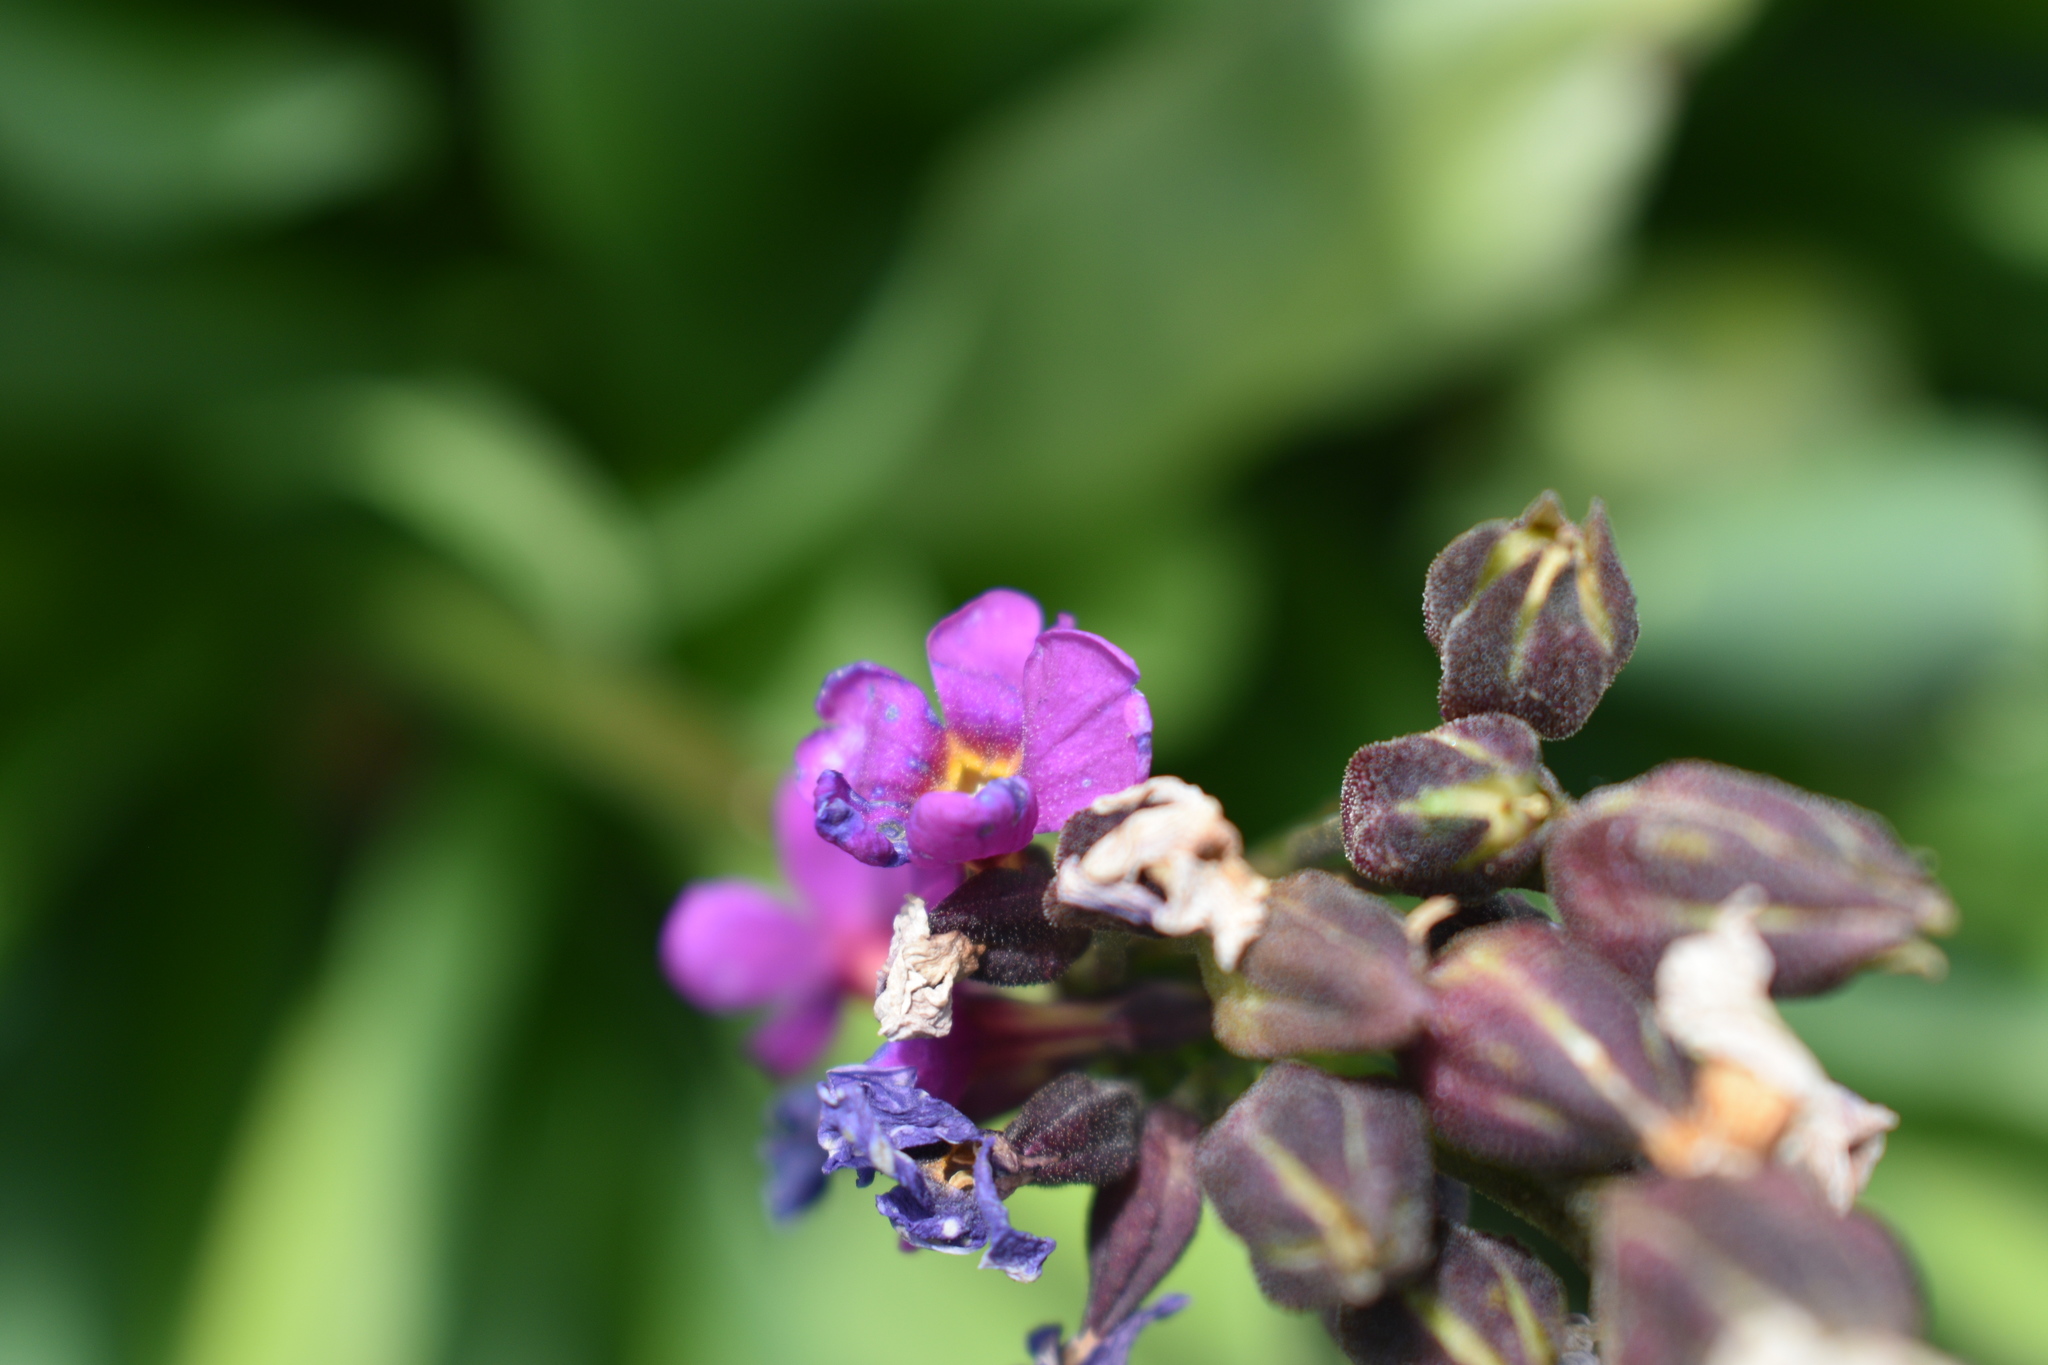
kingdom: Plantae
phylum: Tracheophyta
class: Magnoliopsida
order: Ericales
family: Primulaceae
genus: Primula
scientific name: Primula parryi
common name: Parry's primrose
